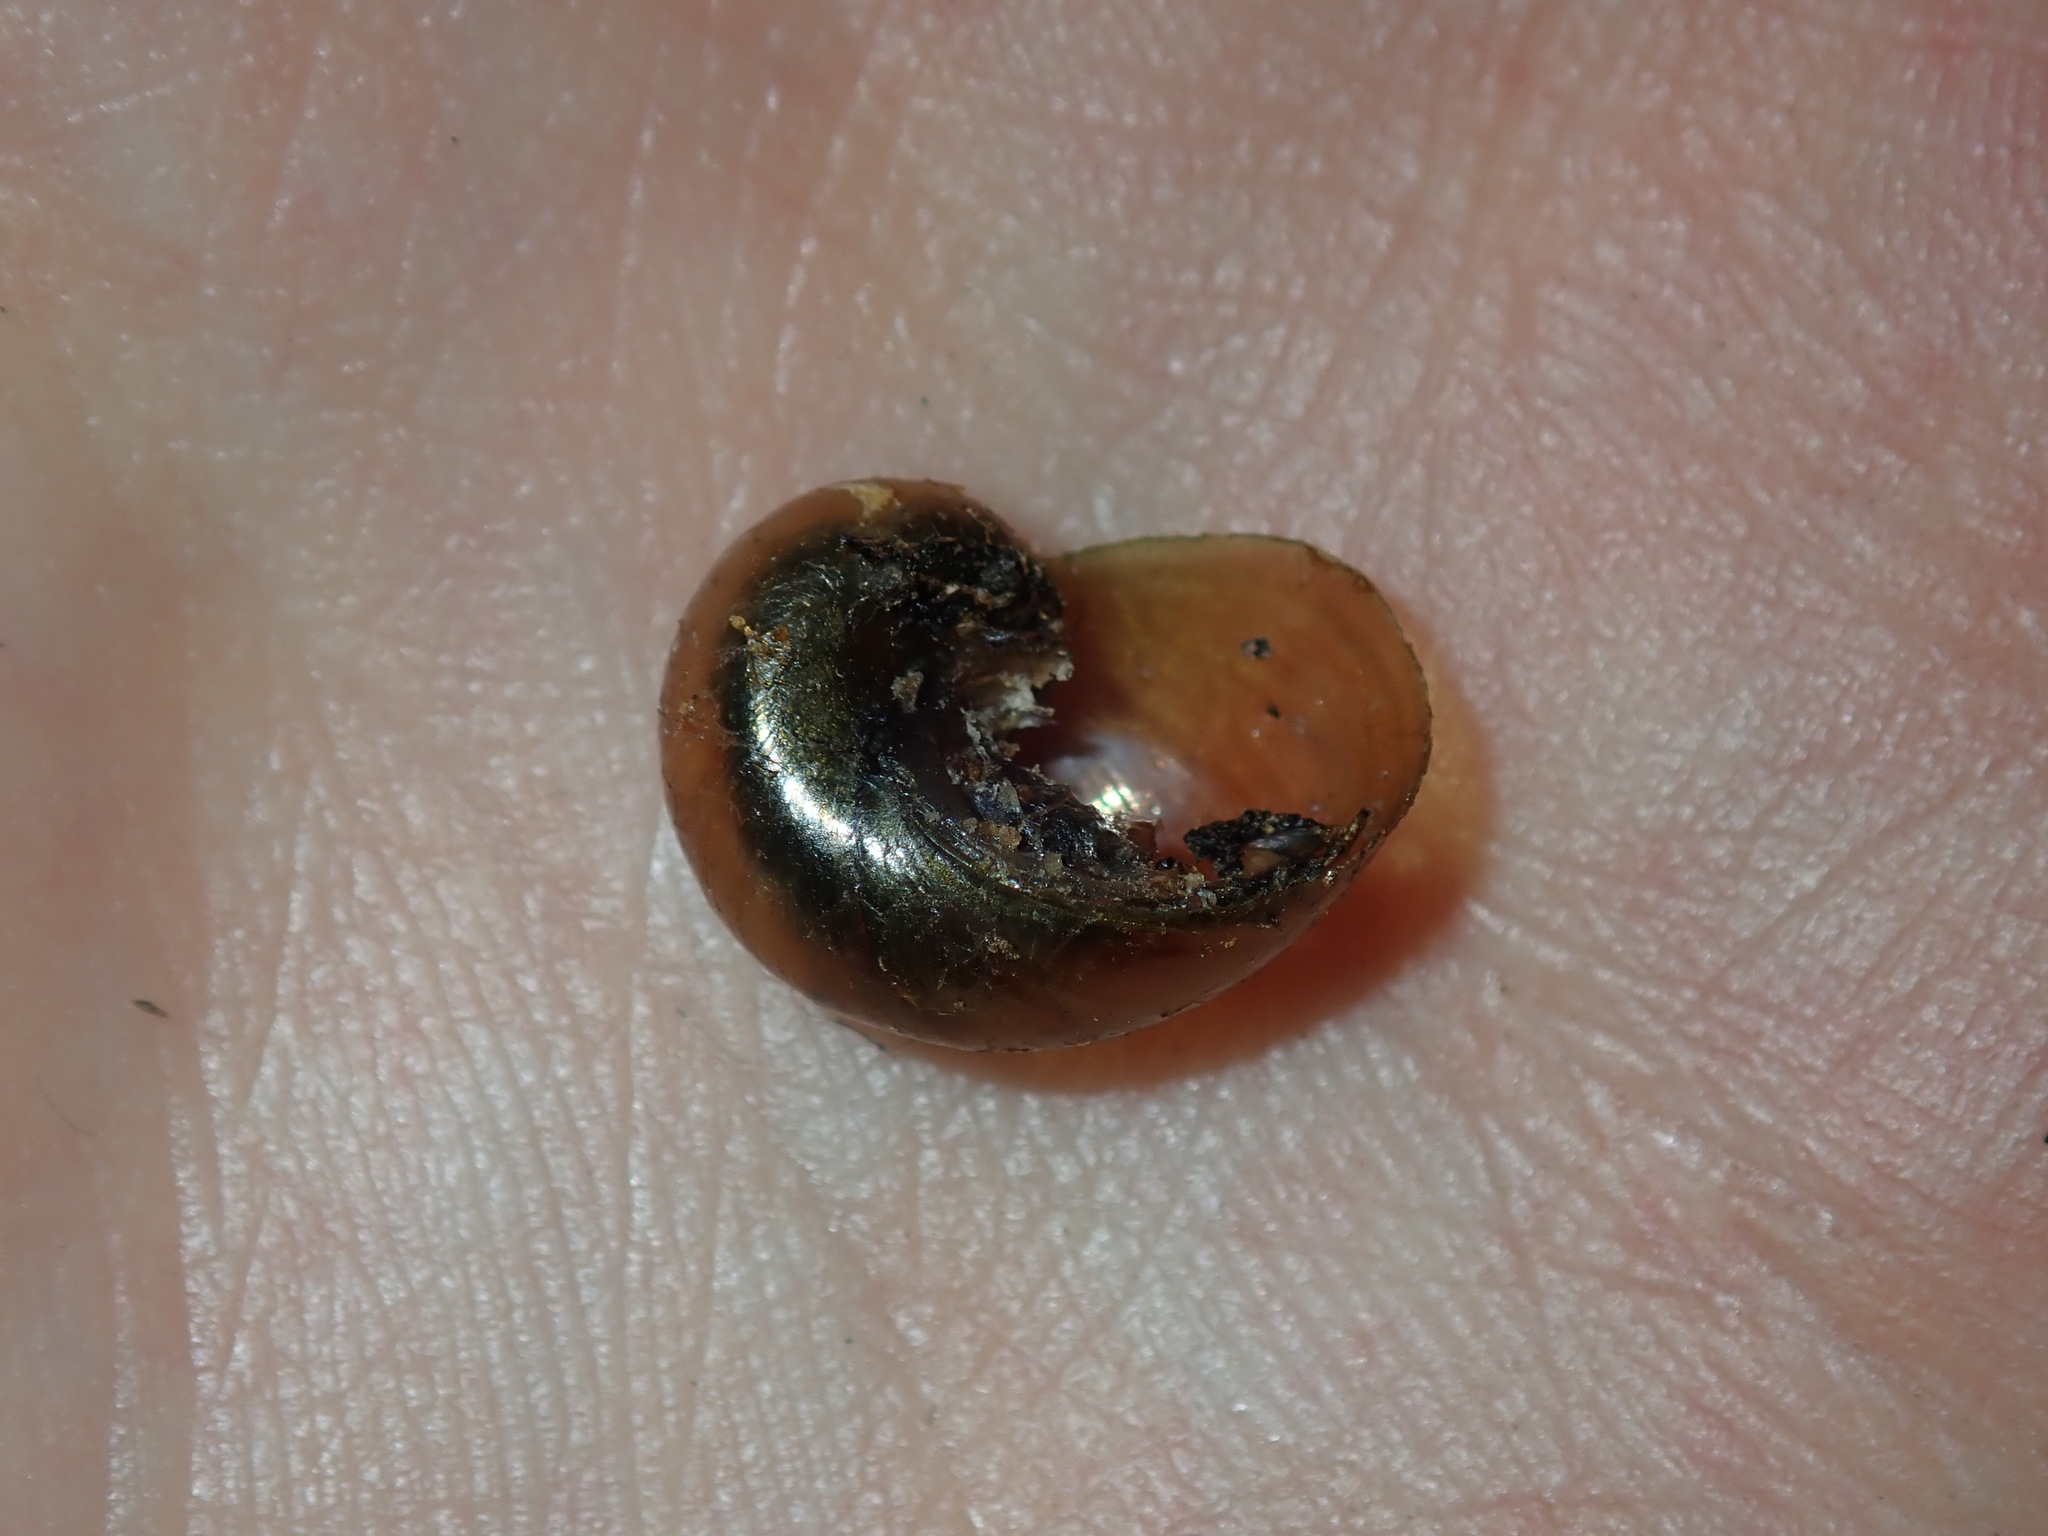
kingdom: Animalia
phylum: Mollusca
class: Gastropoda
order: Stylommatophora
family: Helicarionidae
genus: Stanisicarion
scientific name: Stanisicarion freycineti
